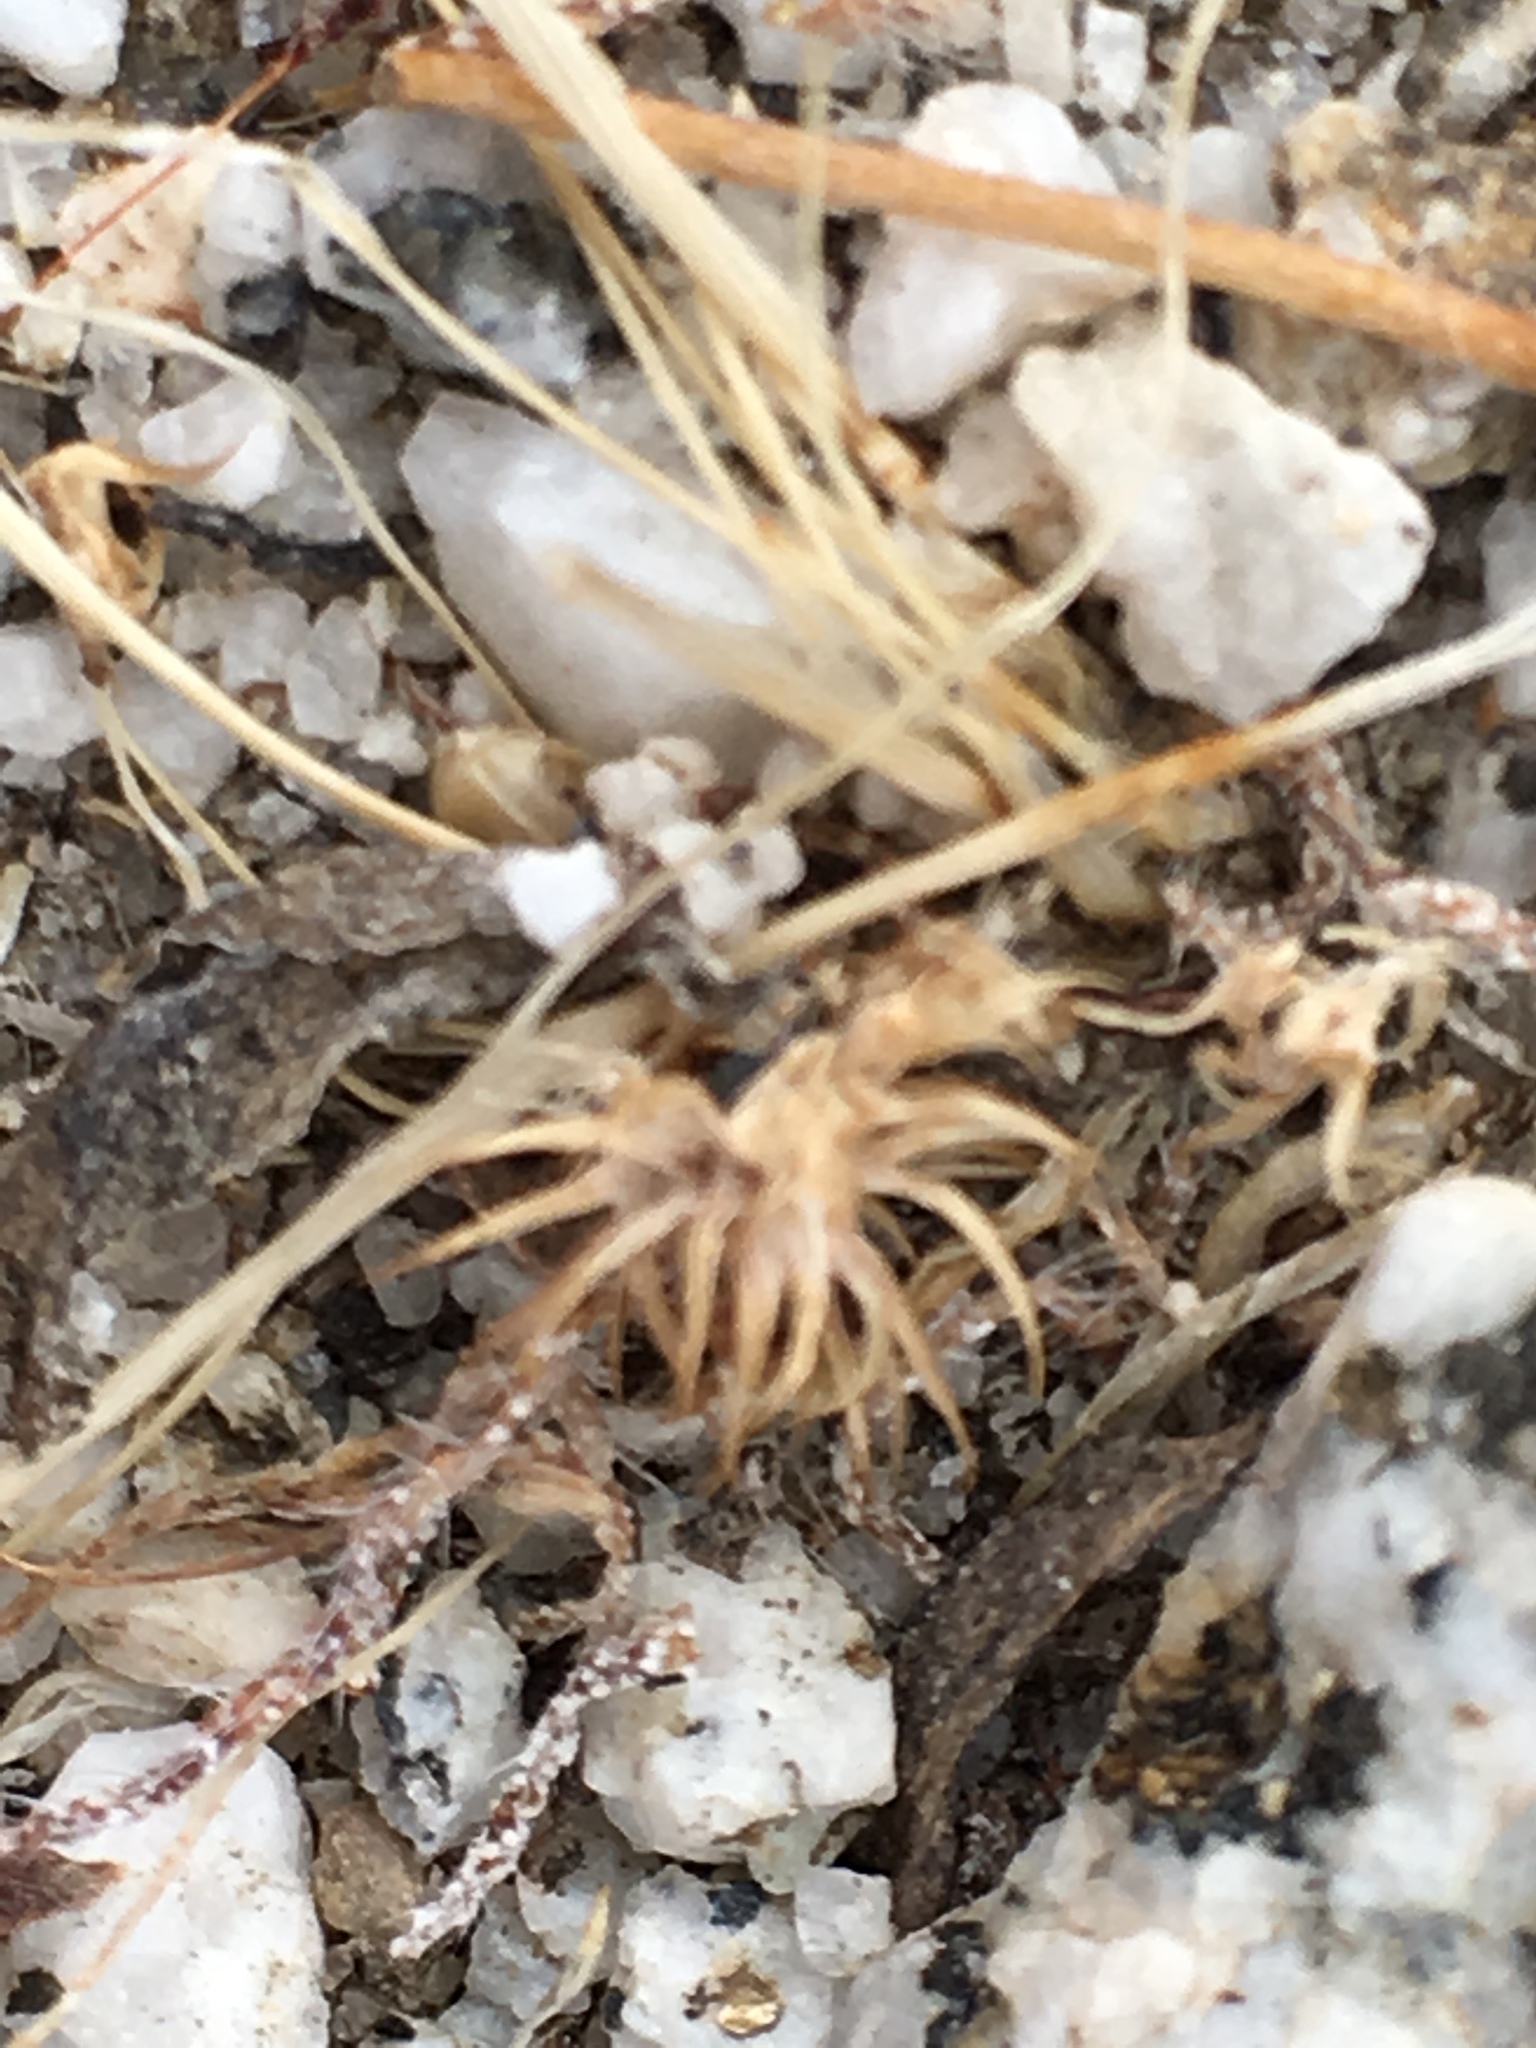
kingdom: Plantae
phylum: Tracheophyta
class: Magnoliopsida
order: Asterales
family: Asteraceae
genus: Ambrosia
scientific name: Ambrosia dumosa
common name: Bur-sage
